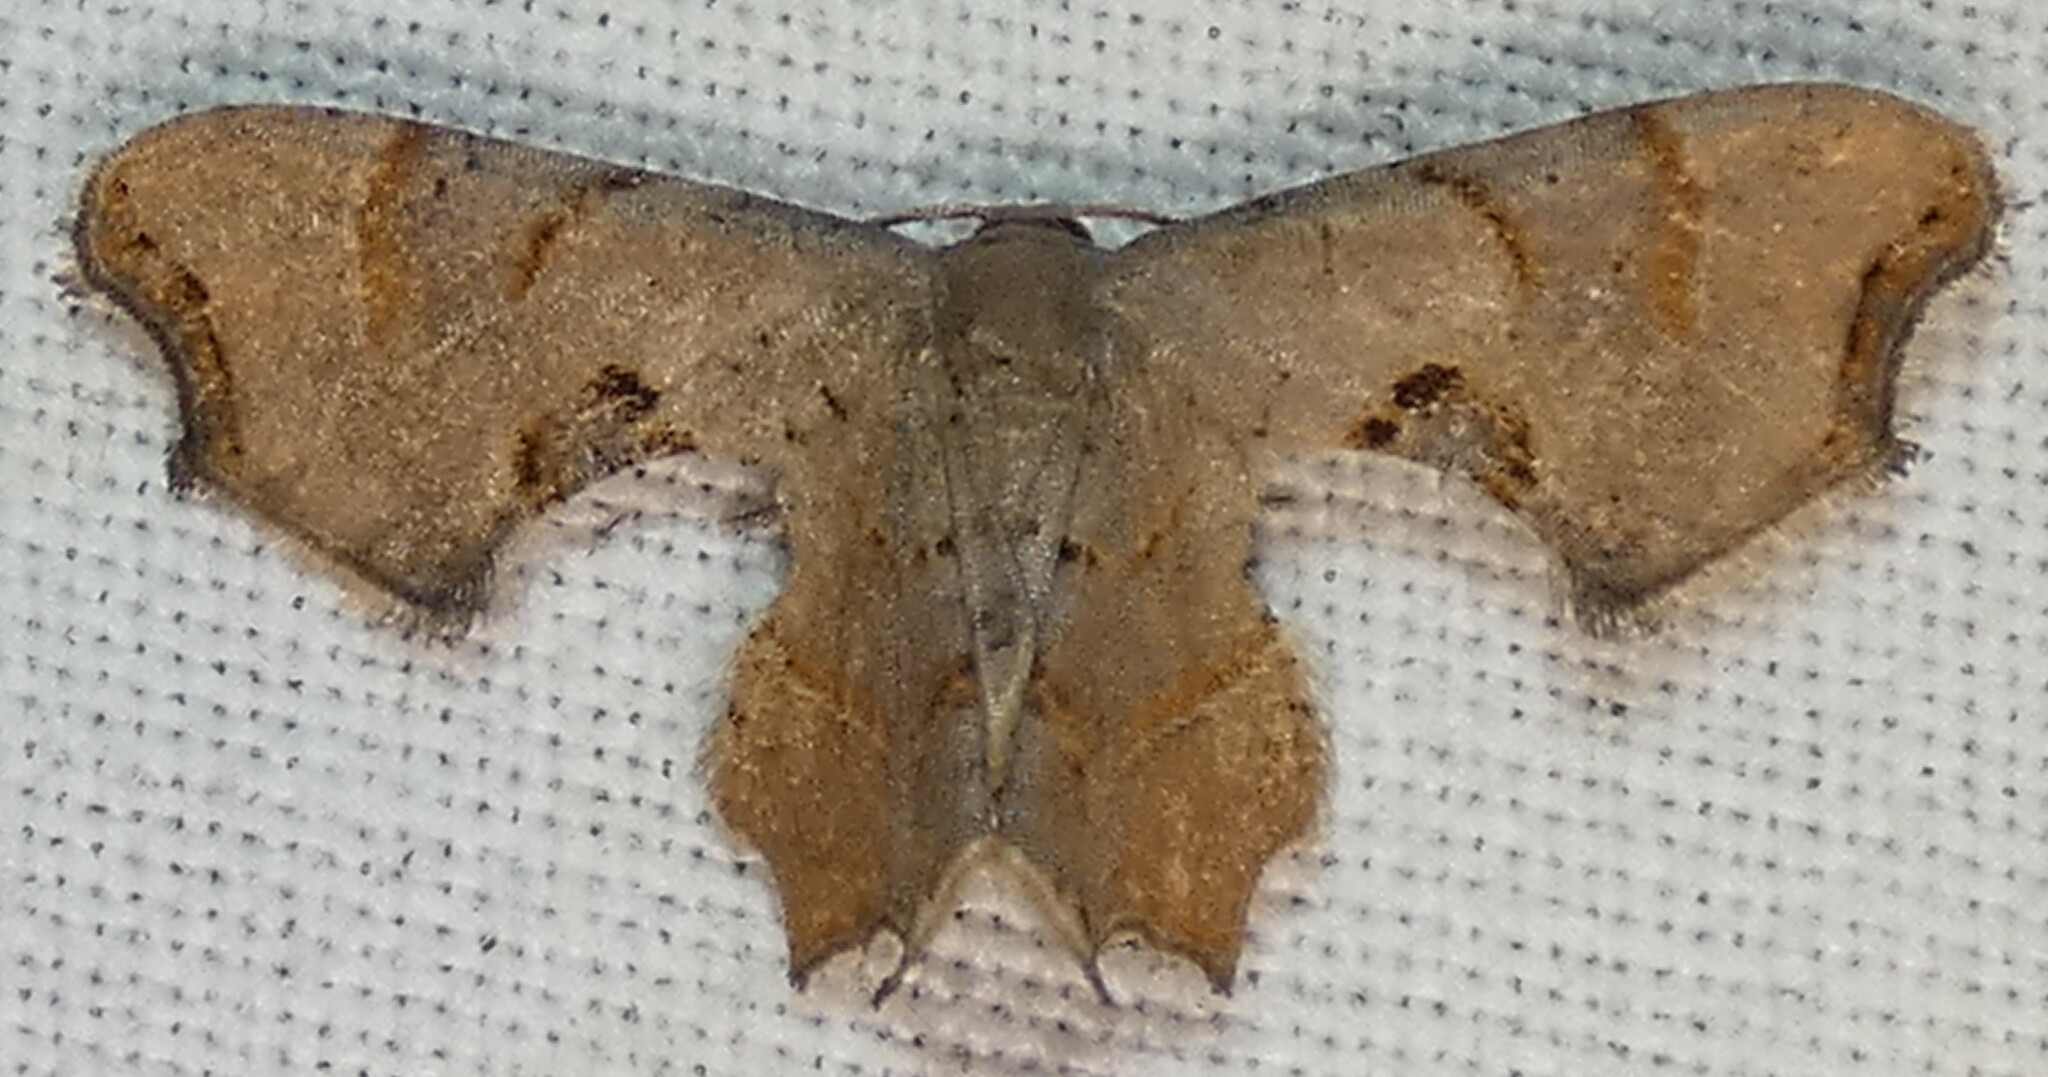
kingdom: Animalia
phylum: Arthropoda
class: Insecta
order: Lepidoptera
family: Uraniidae
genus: Epiplema
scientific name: Epiplema Calledapteryx dryopterata
